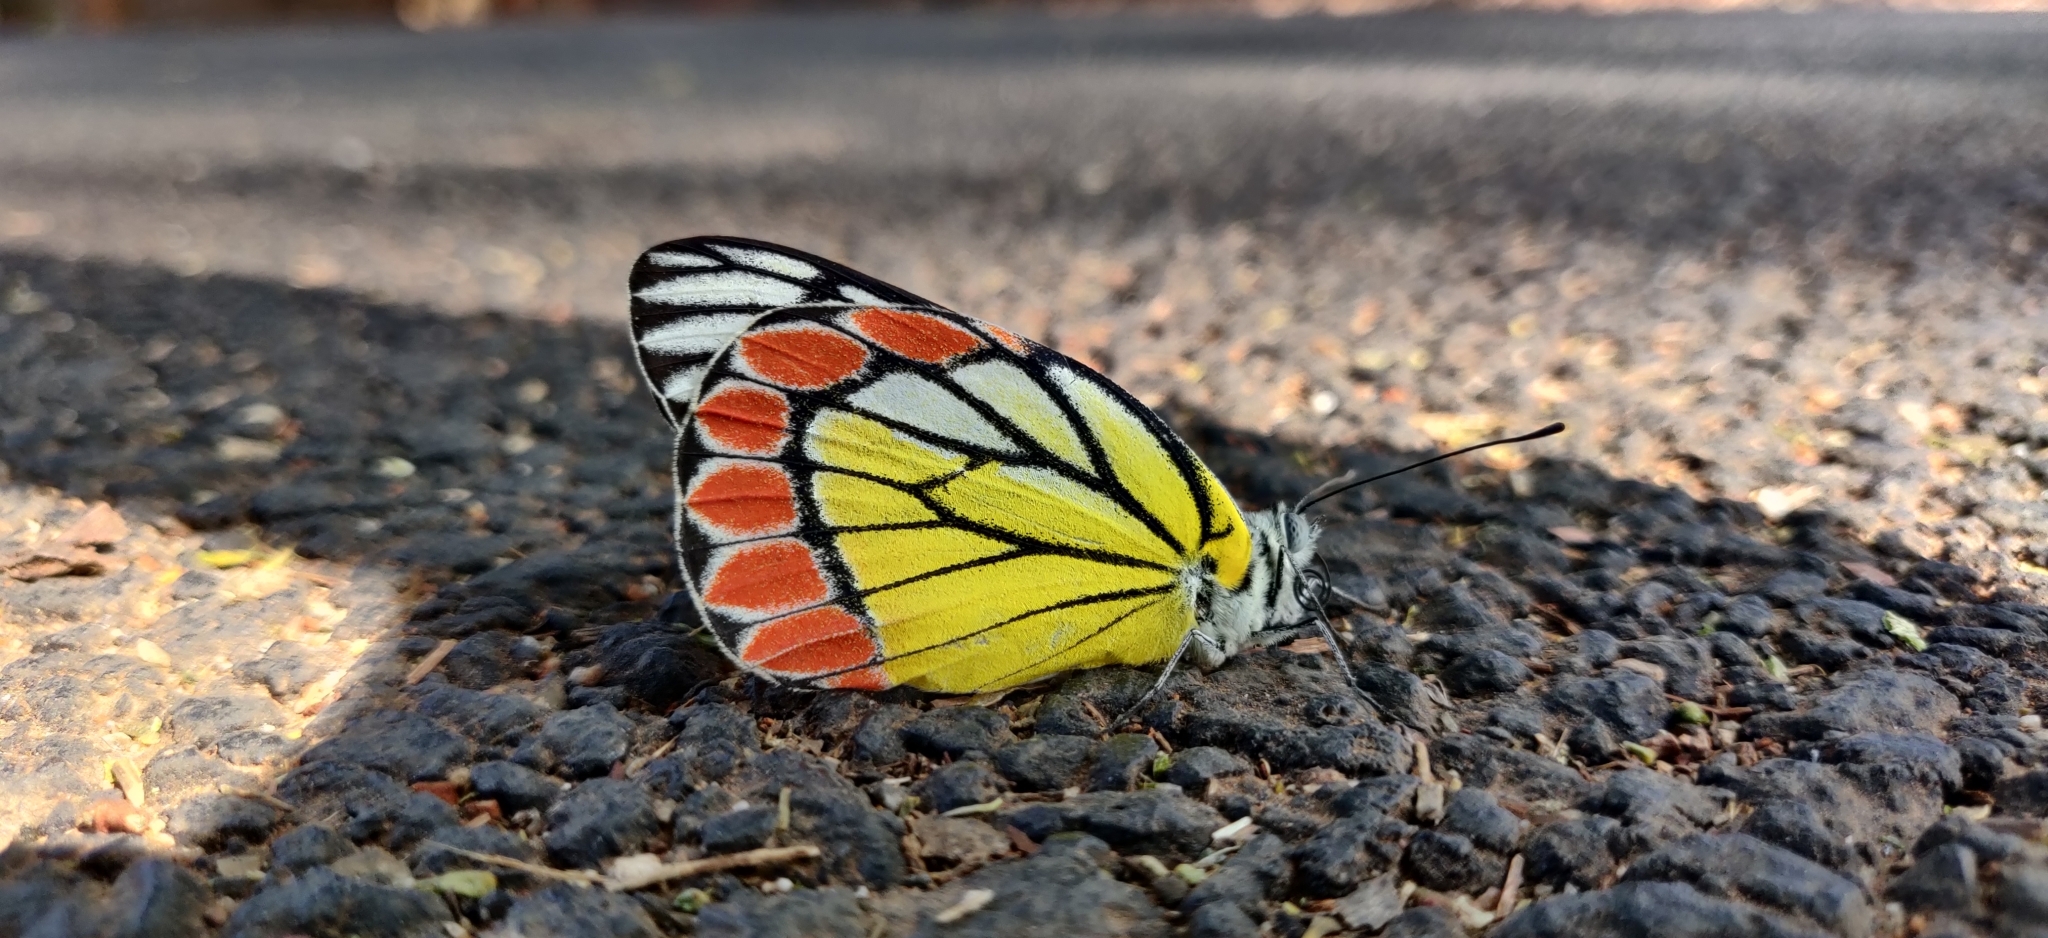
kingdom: Animalia
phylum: Arthropoda
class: Insecta
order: Lepidoptera
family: Pieridae
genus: Delias
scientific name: Delias eucharis
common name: Common jezebel
